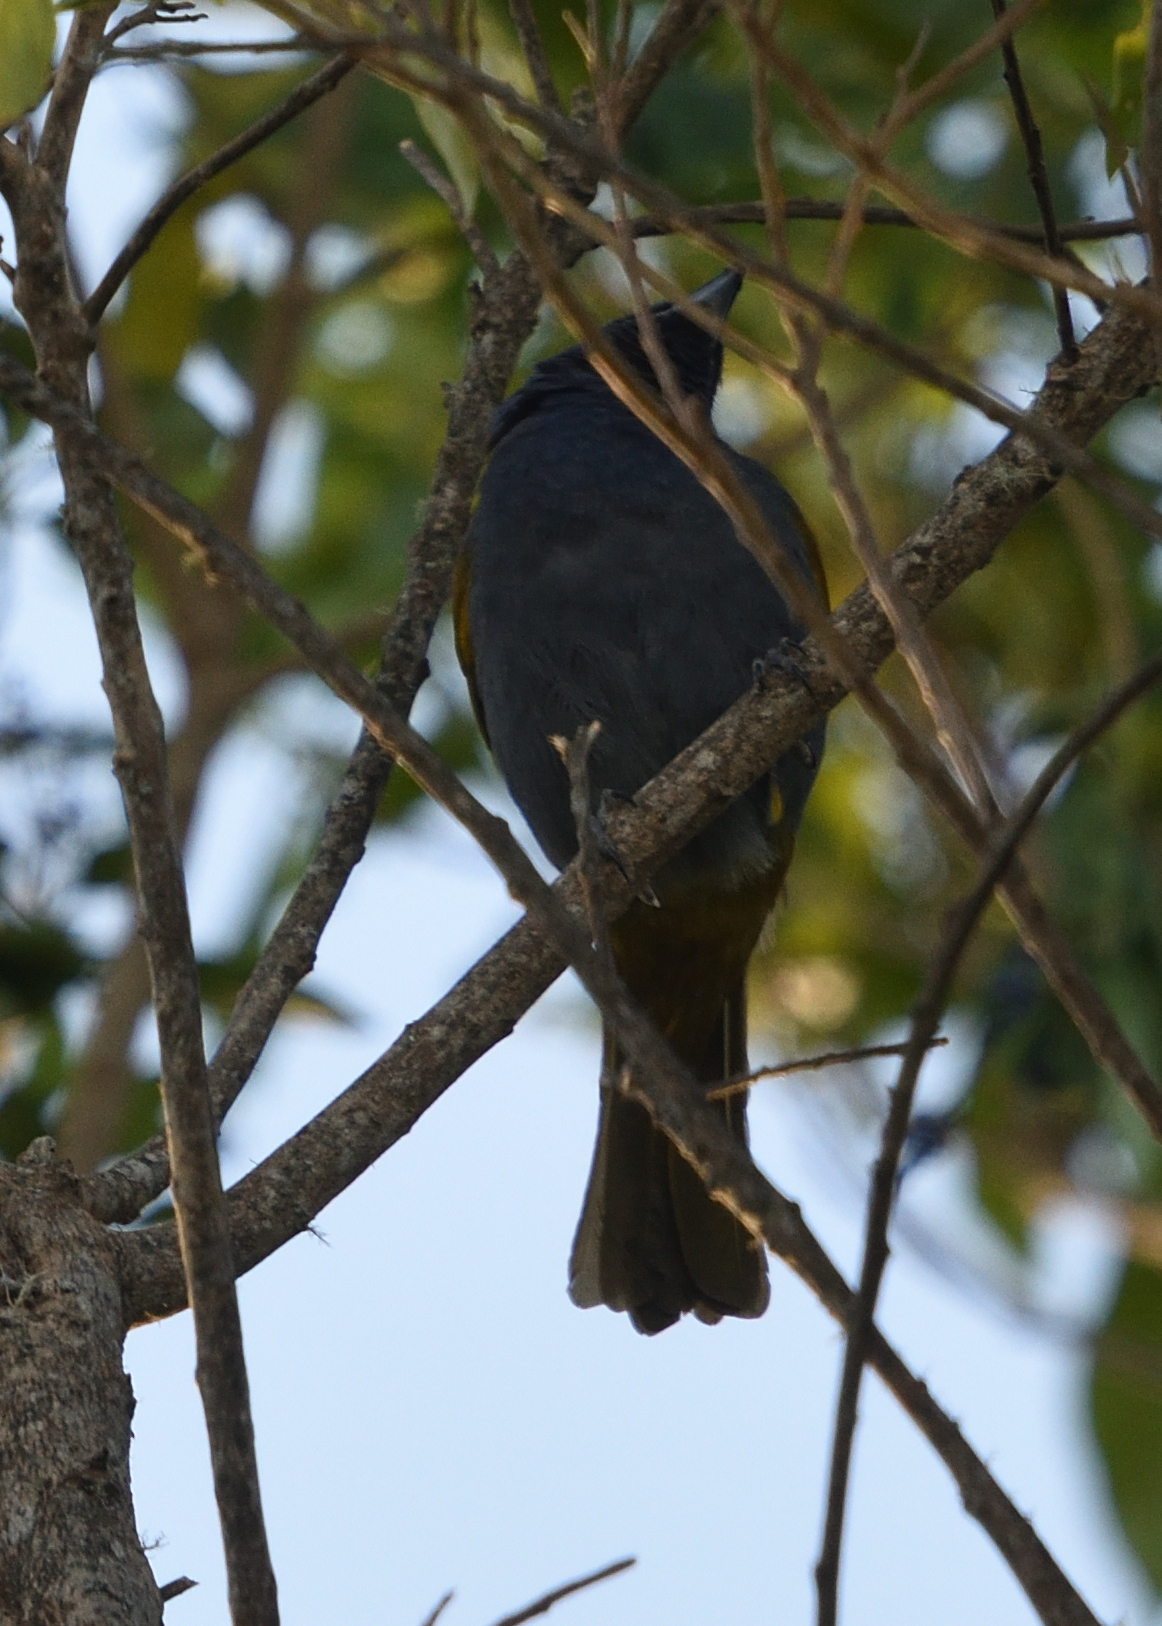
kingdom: Animalia
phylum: Chordata
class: Aves
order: Passeriformes
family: Thraupidae
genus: Sporathraupis
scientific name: Sporathraupis cyanocephala
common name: Blue-capped tanager
